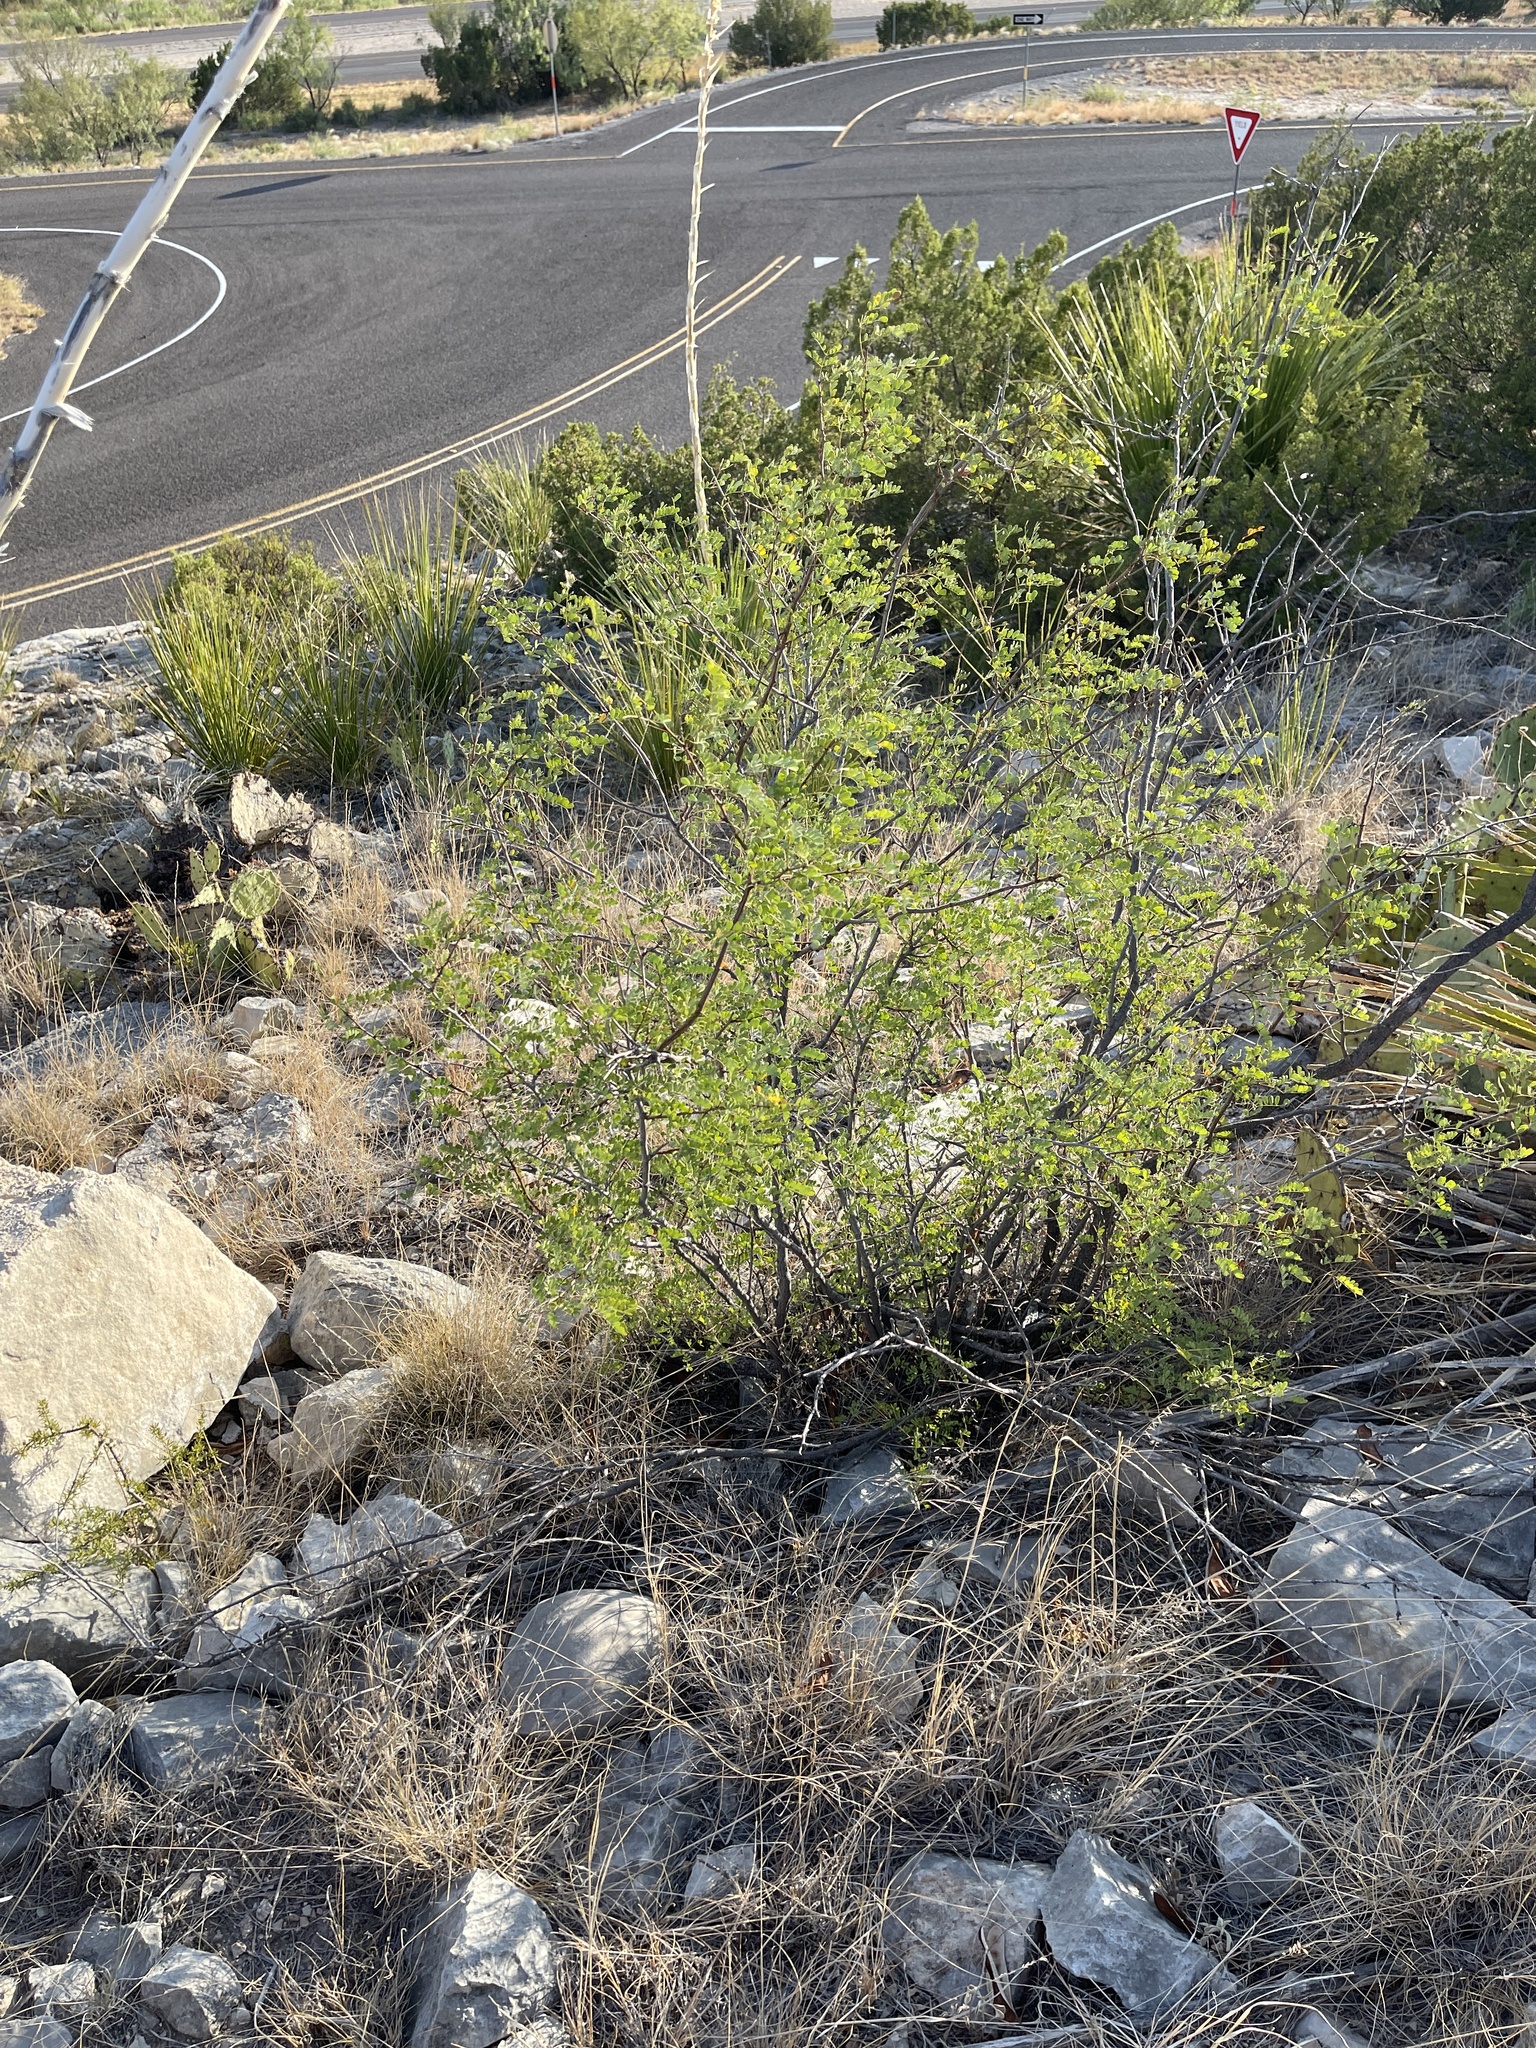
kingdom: Plantae
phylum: Tracheophyta
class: Magnoliopsida
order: Fabales
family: Fabaceae
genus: Senegalia
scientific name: Senegalia roemeriana
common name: Roemer's acacia
